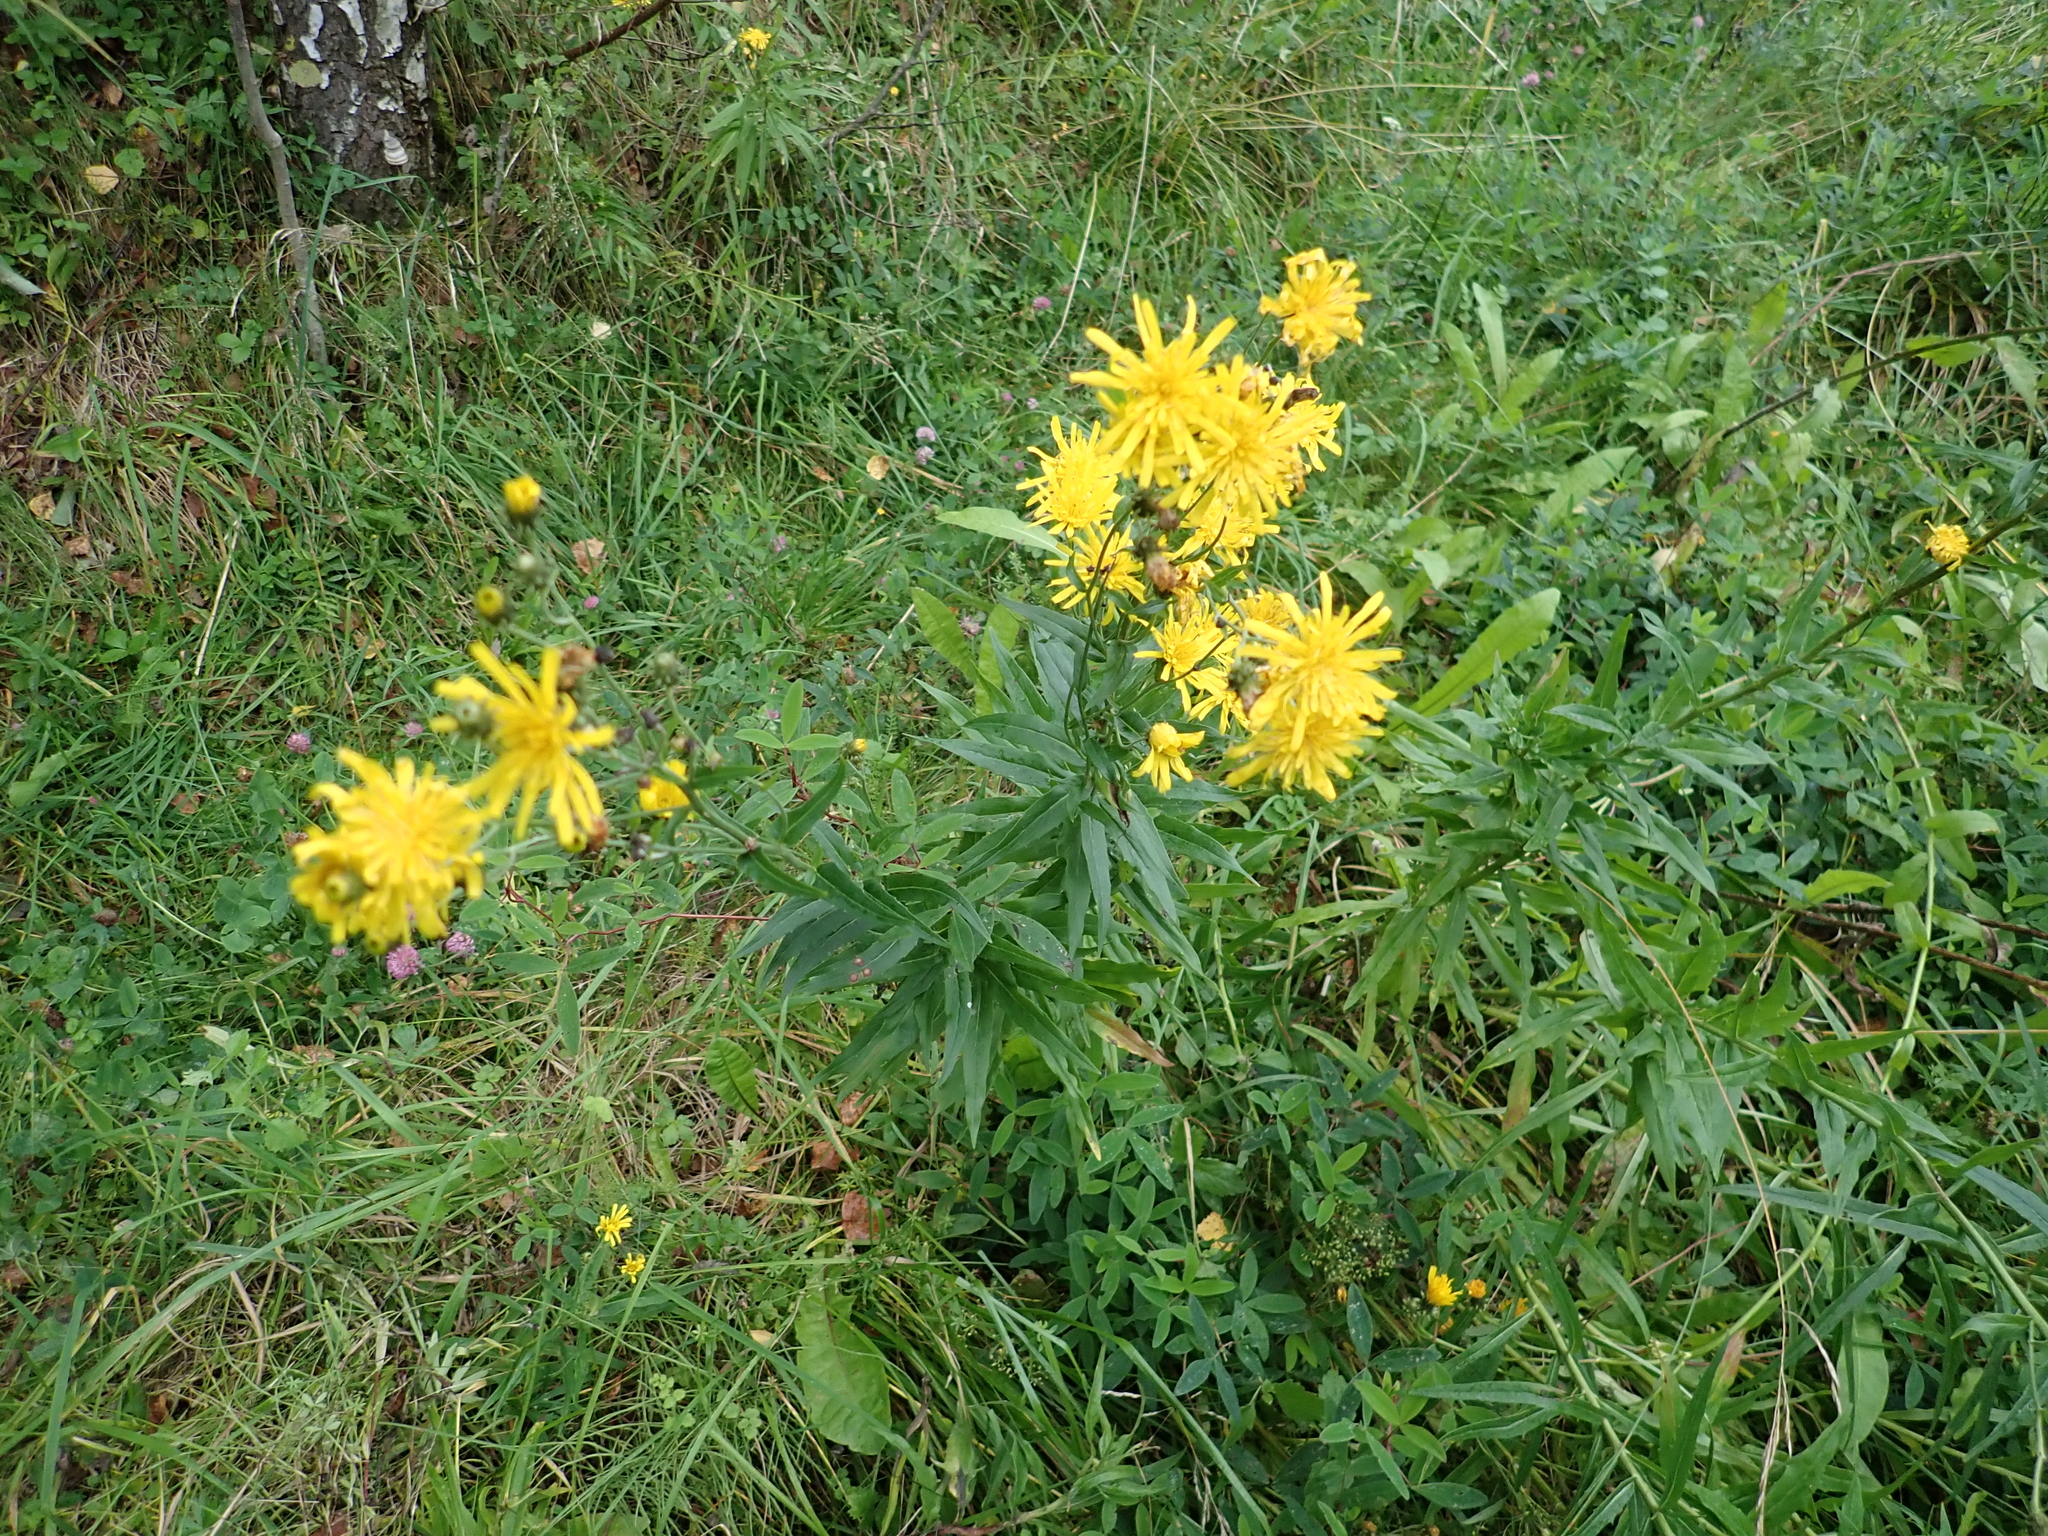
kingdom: Plantae
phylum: Tracheophyta
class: Magnoliopsida
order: Asterales
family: Asteraceae
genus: Hieracium
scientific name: Hieracium umbellatum
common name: Northern hawkweed
